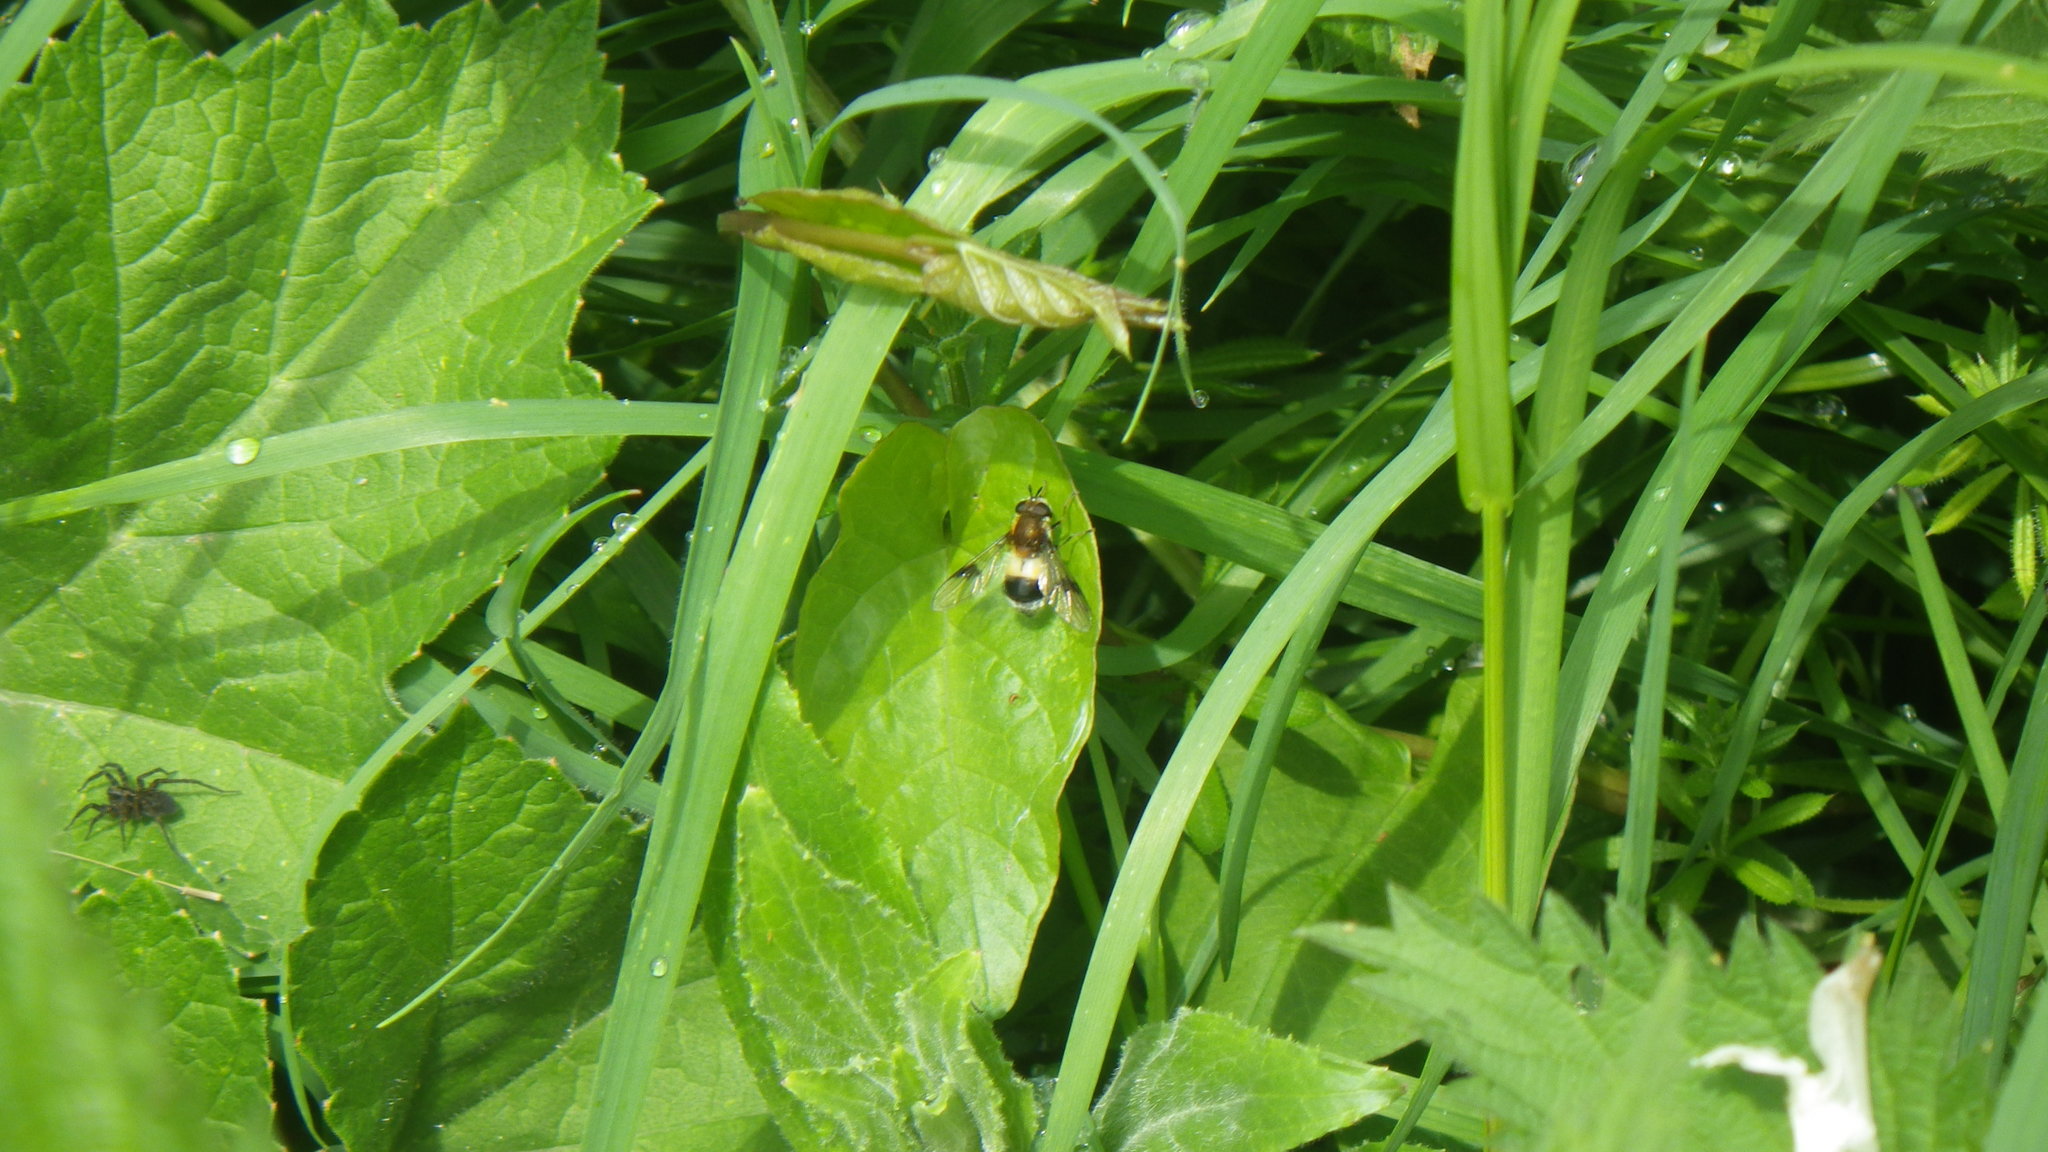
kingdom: Animalia
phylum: Arthropoda
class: Insecta
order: Diptera
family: Syrphidae
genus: Leucozona
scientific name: Leucozona lucorum
